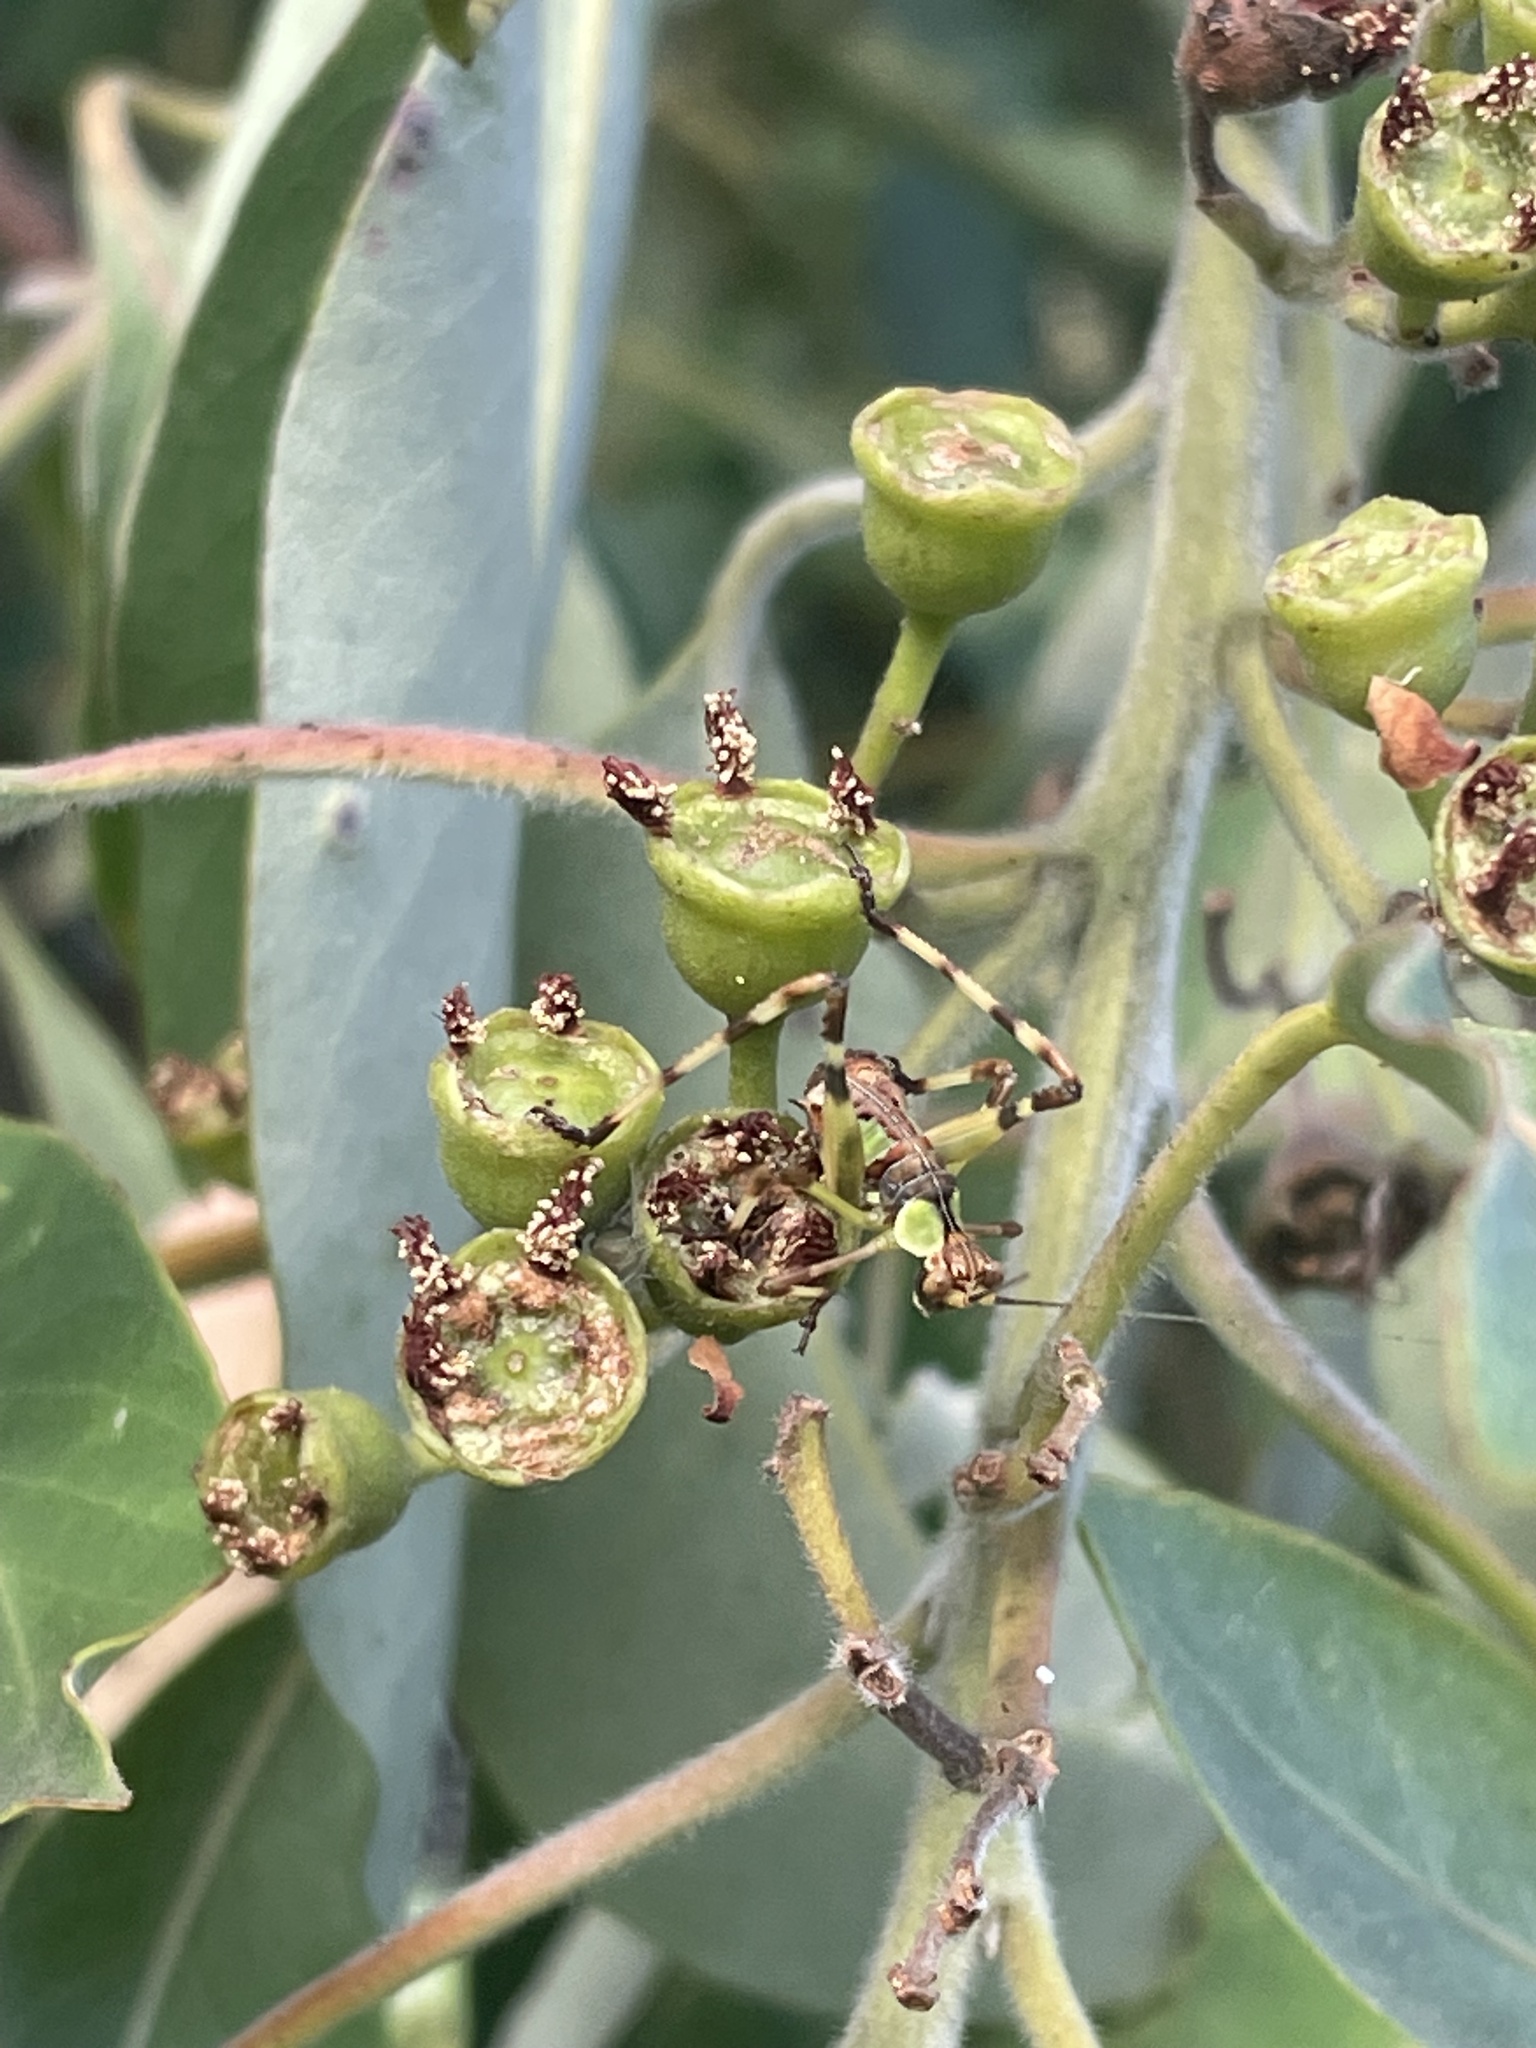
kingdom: Animalia
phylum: Arthropoda
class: Insecta
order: Orthoptera
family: Tettigoniidae
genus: Ephippitytha
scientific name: Ephippitytha trigintiduoguttata
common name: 32-spotted katydid
